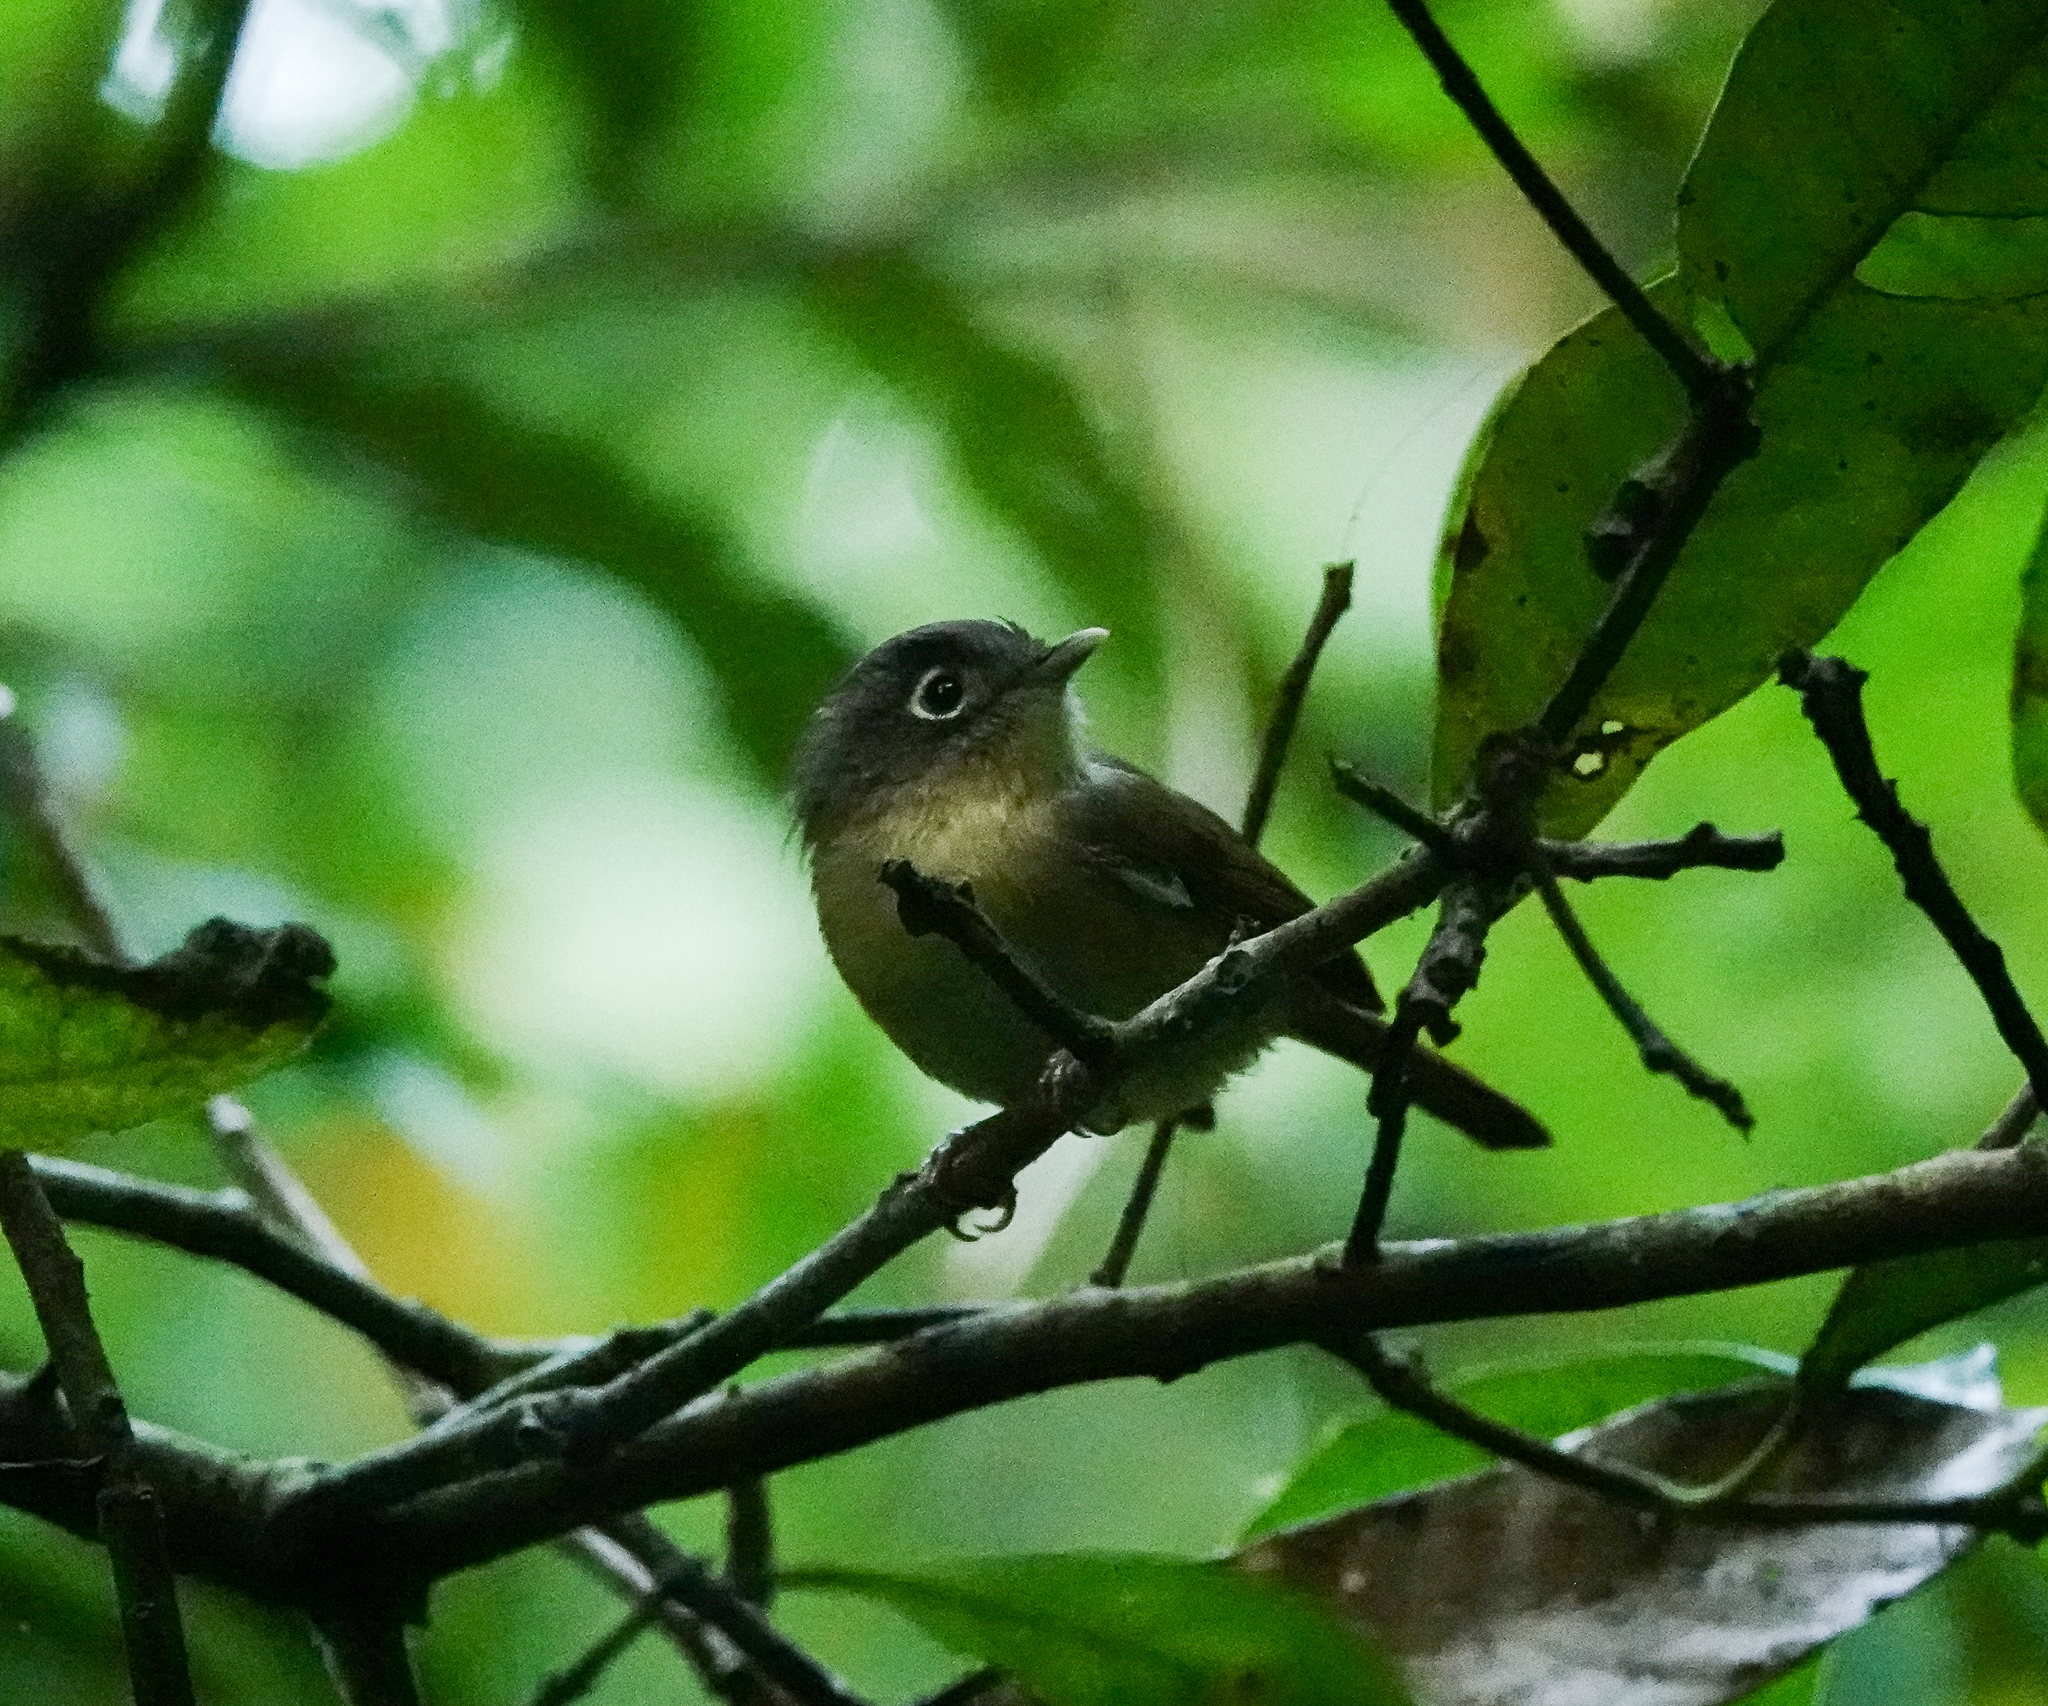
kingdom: Animalia
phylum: Chordata
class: Aves
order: Passeriformes
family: Pellorneidae
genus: Alcippe
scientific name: Alcippe nipalensis
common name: Nepal fulvetta
